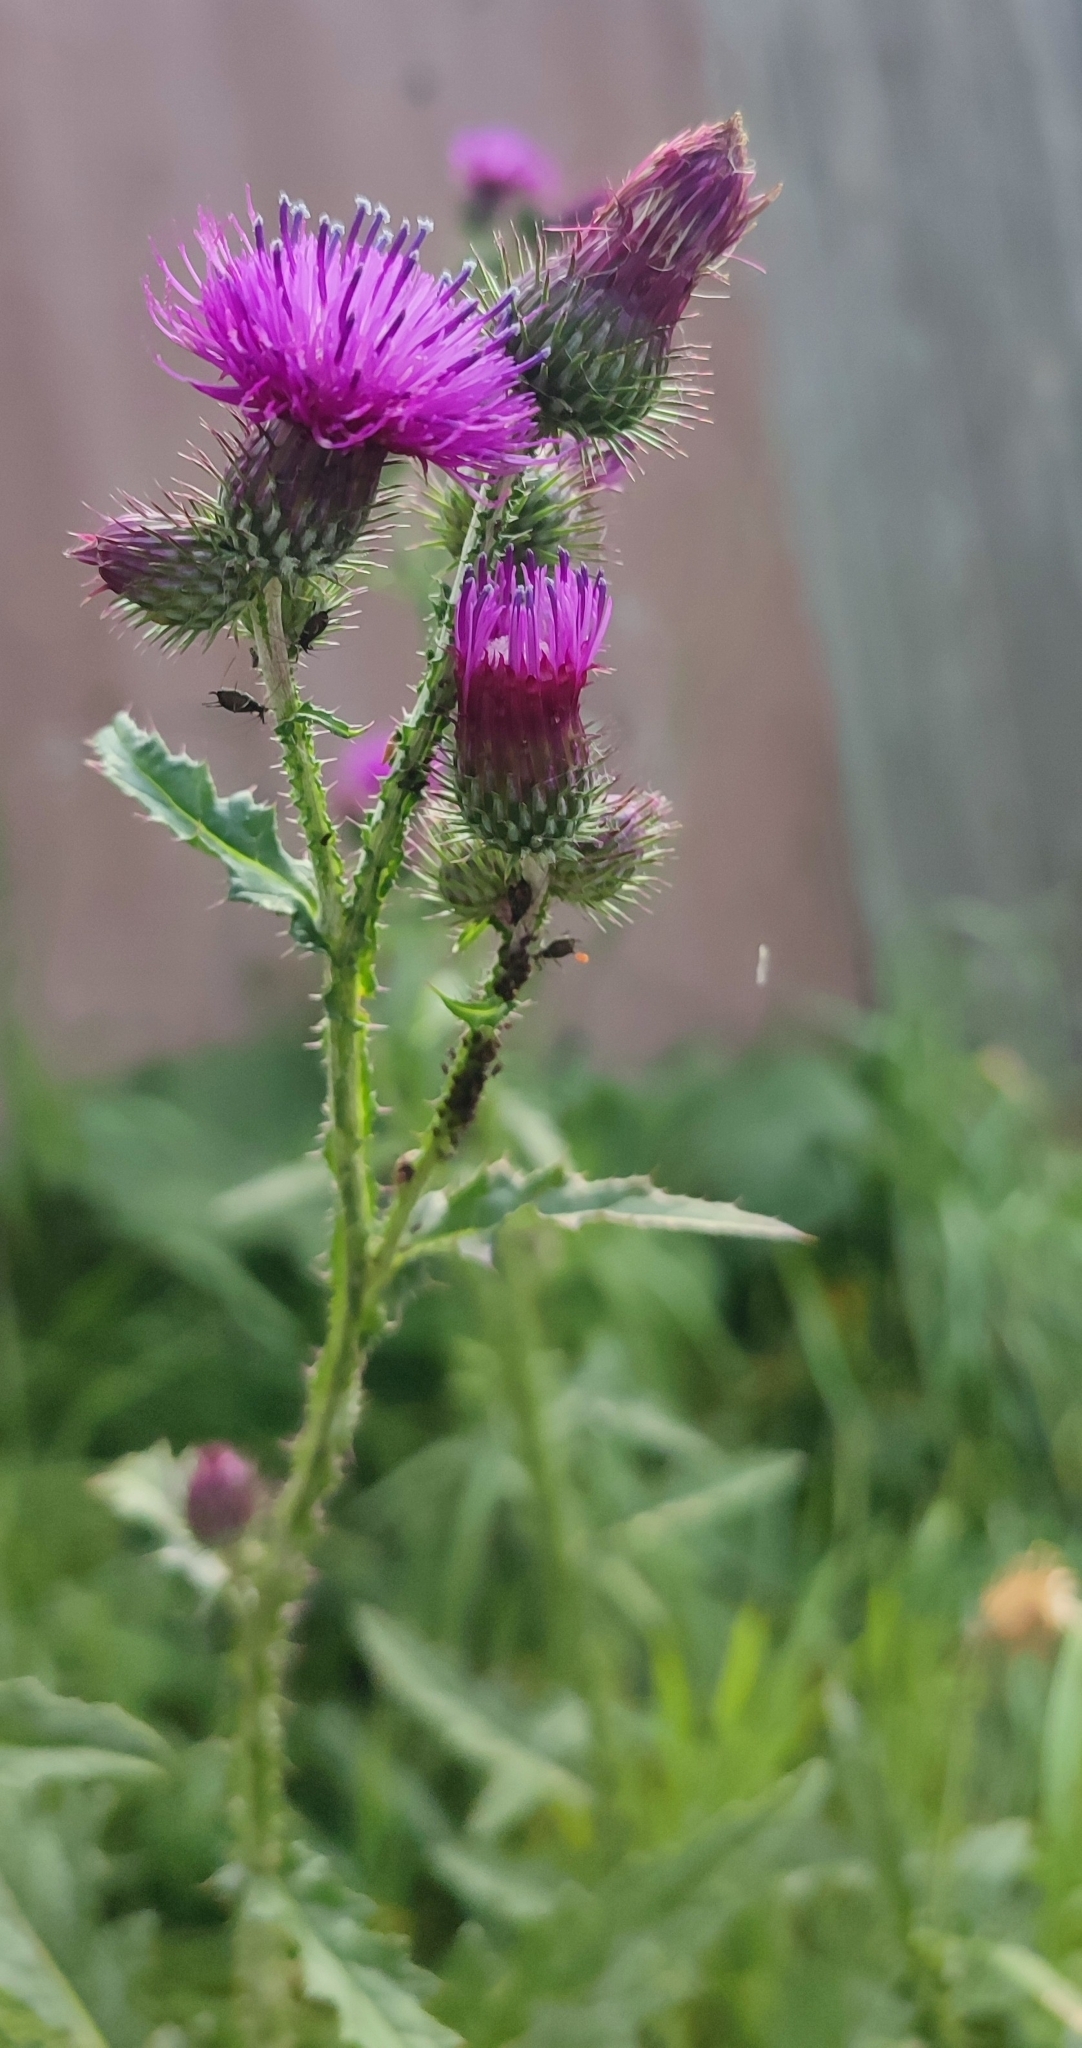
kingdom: Plantae
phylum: Tracheophyta
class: Magnoliopsida
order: Asterales
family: Asteraceae
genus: Carduus
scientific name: Carduus crispus
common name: Welted thistle
